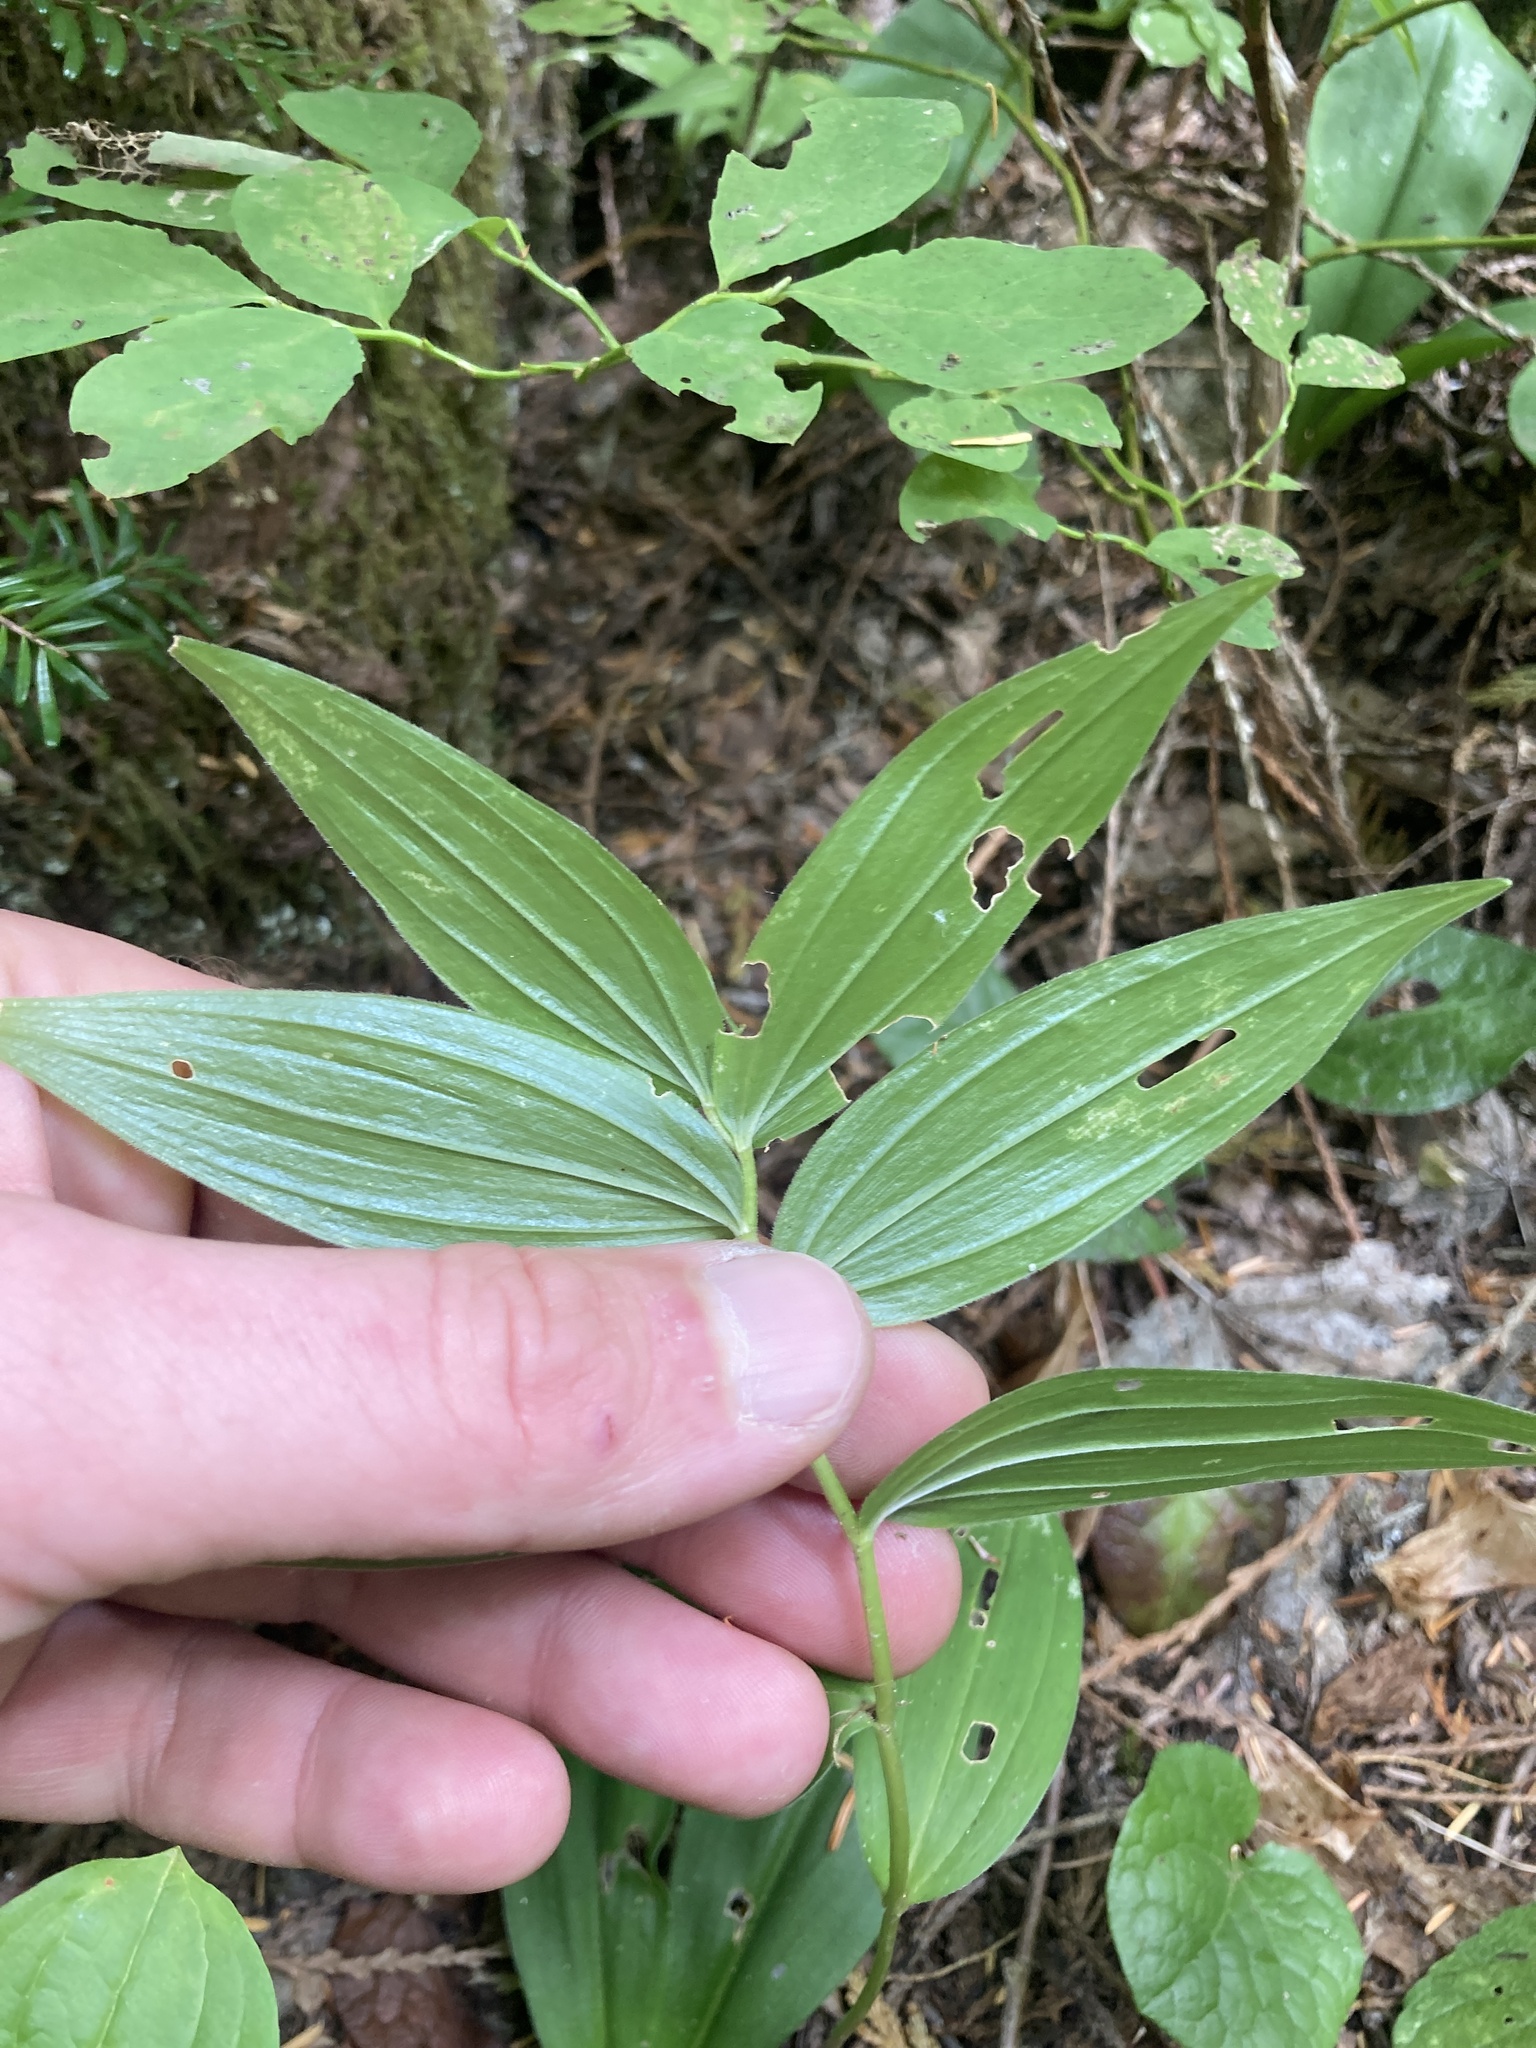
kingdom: Plantae
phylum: Tracheophyta
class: Liliopsida
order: Asparagales
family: Asparagaceae
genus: Maianthemum
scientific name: Maianthemum stellatum
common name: Little false solomon's seal
